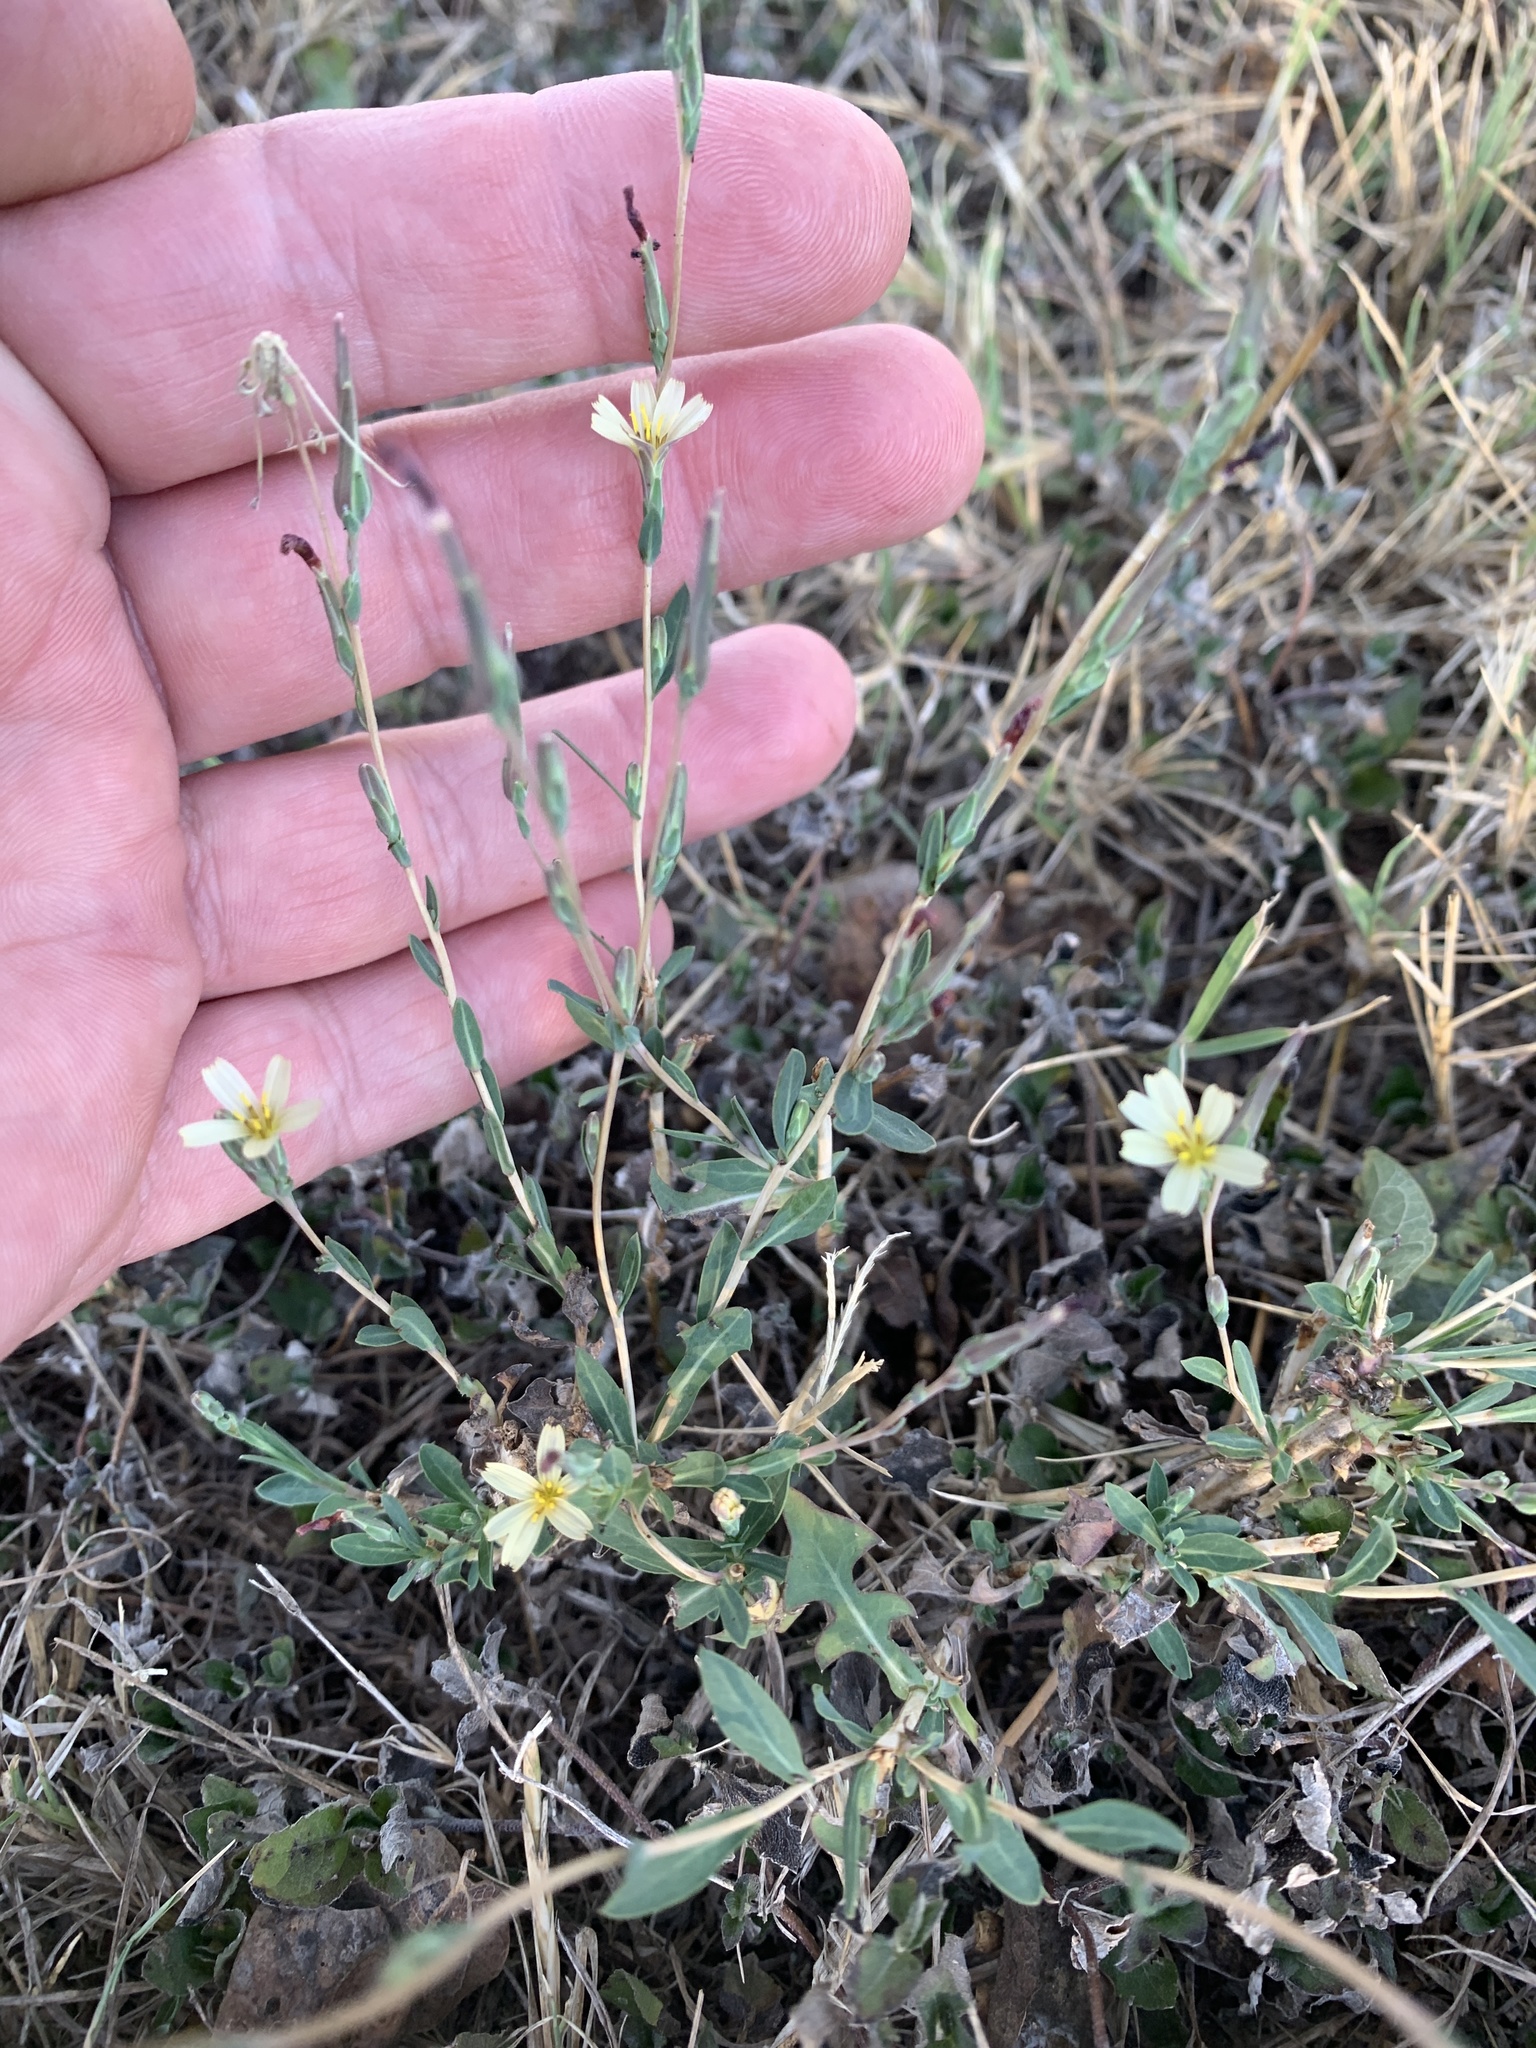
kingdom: Plantae
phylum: Tracheophyta
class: Magnoliopsida
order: Asterales
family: Asteraceae
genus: Lactuca
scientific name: Lactuca saligna
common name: Wild lettuce
